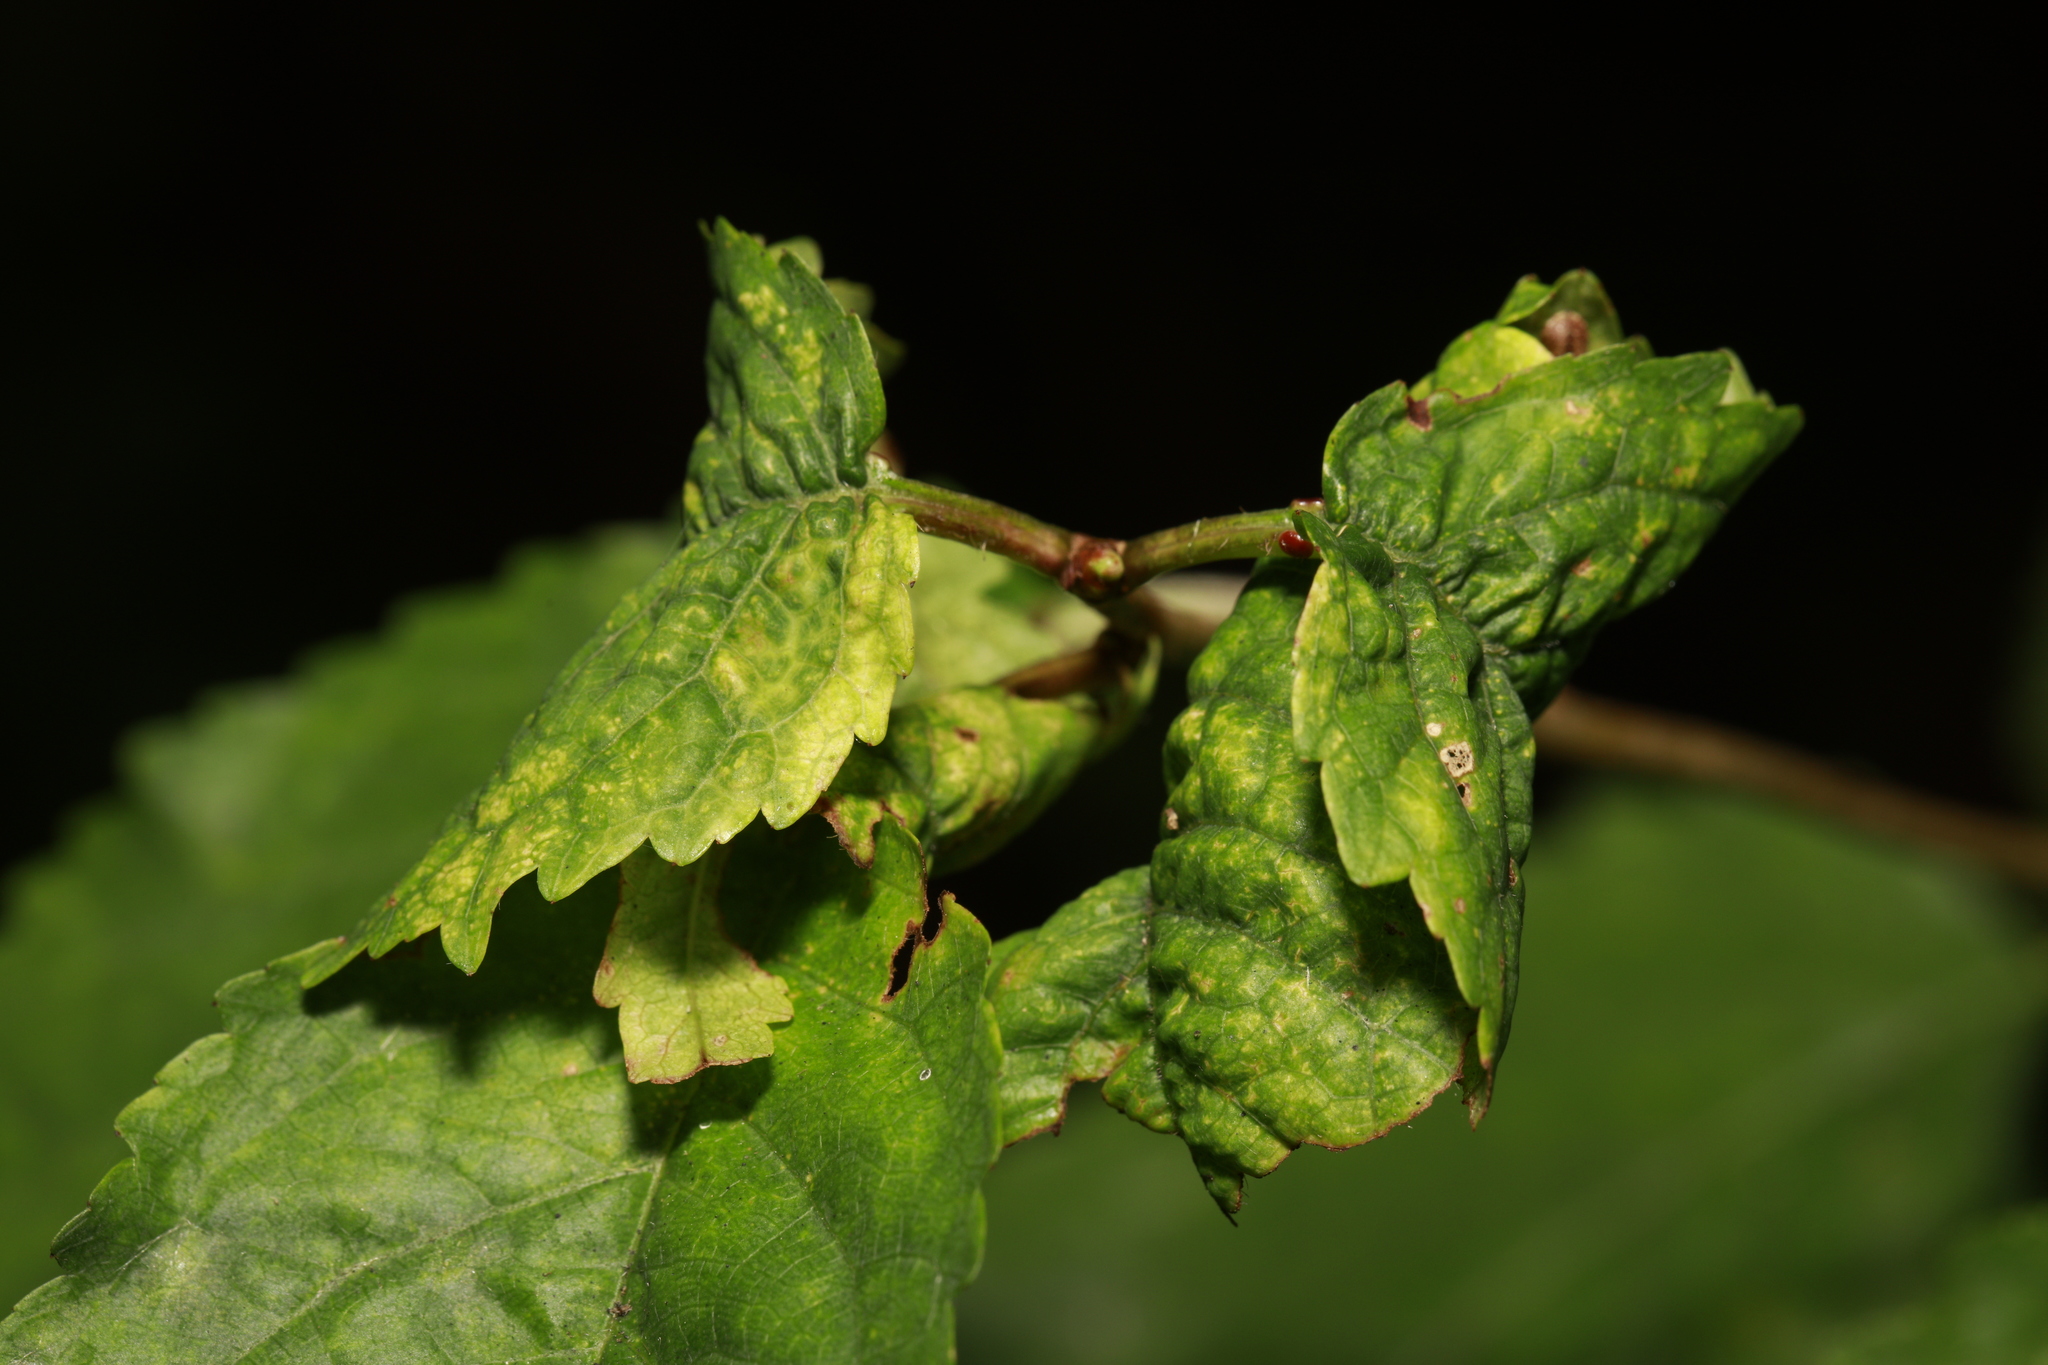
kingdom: Animalia
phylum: Arthropoda
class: Insecta
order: Hemiptera
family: Aphididae
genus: Myzus
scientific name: Myzus cerasi
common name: Black cherry aphid
